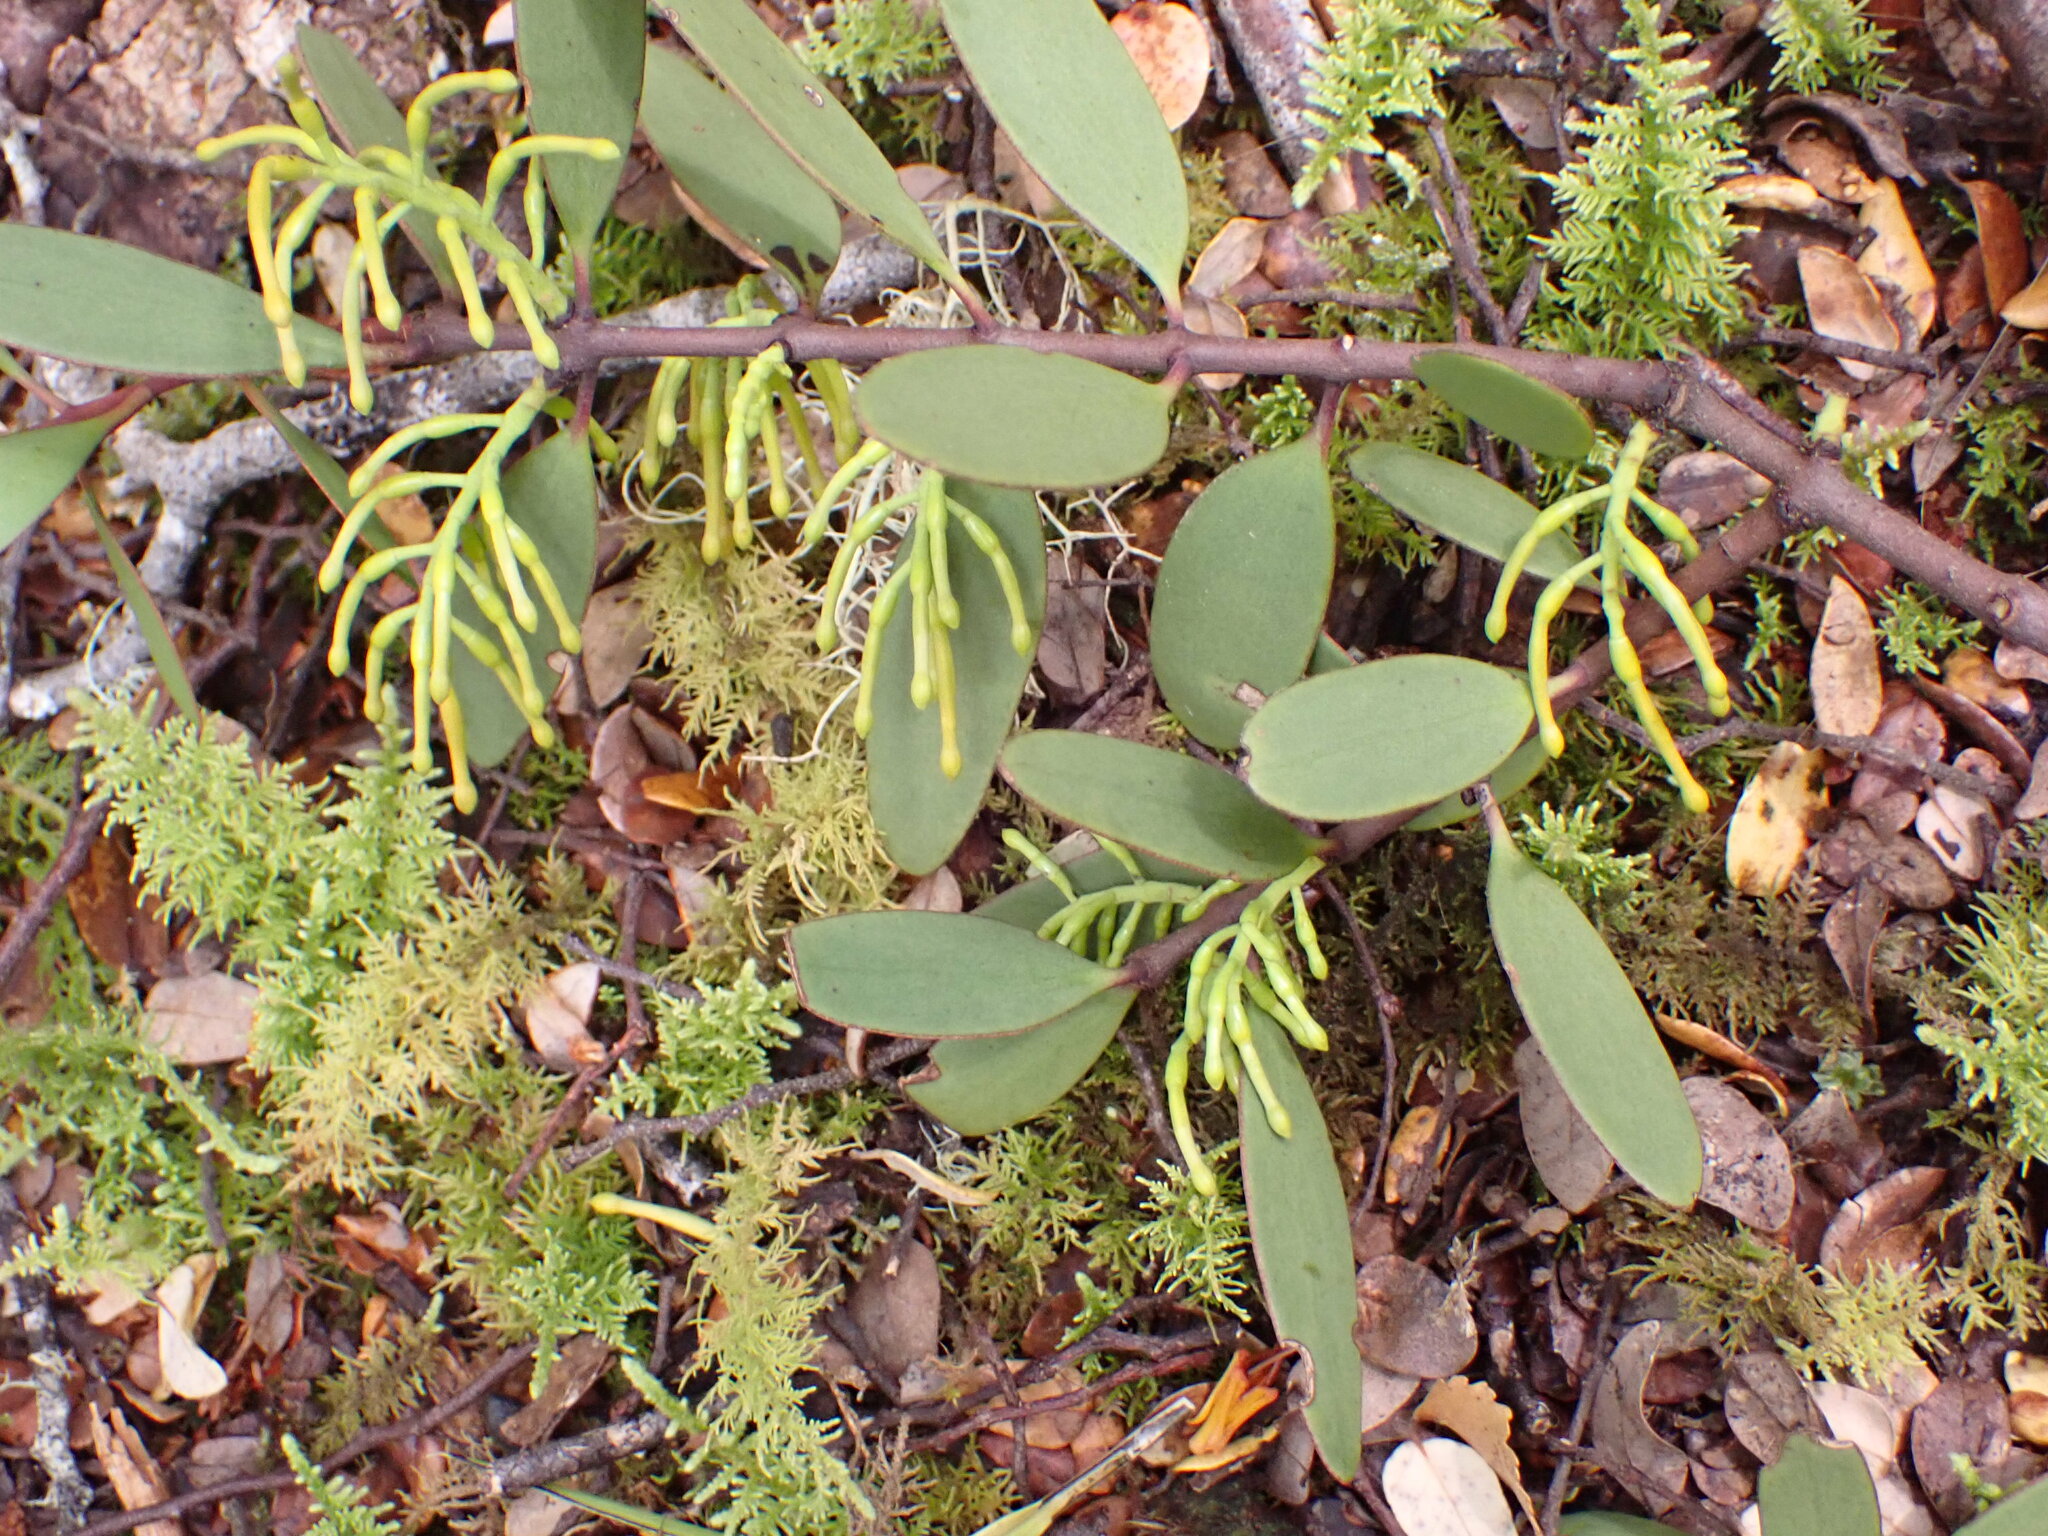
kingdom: Plantae
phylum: Tracheophyta
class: Magnoliopsida
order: Santalales
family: Loranthaceae
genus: Alepis
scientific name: Alepis flavida
